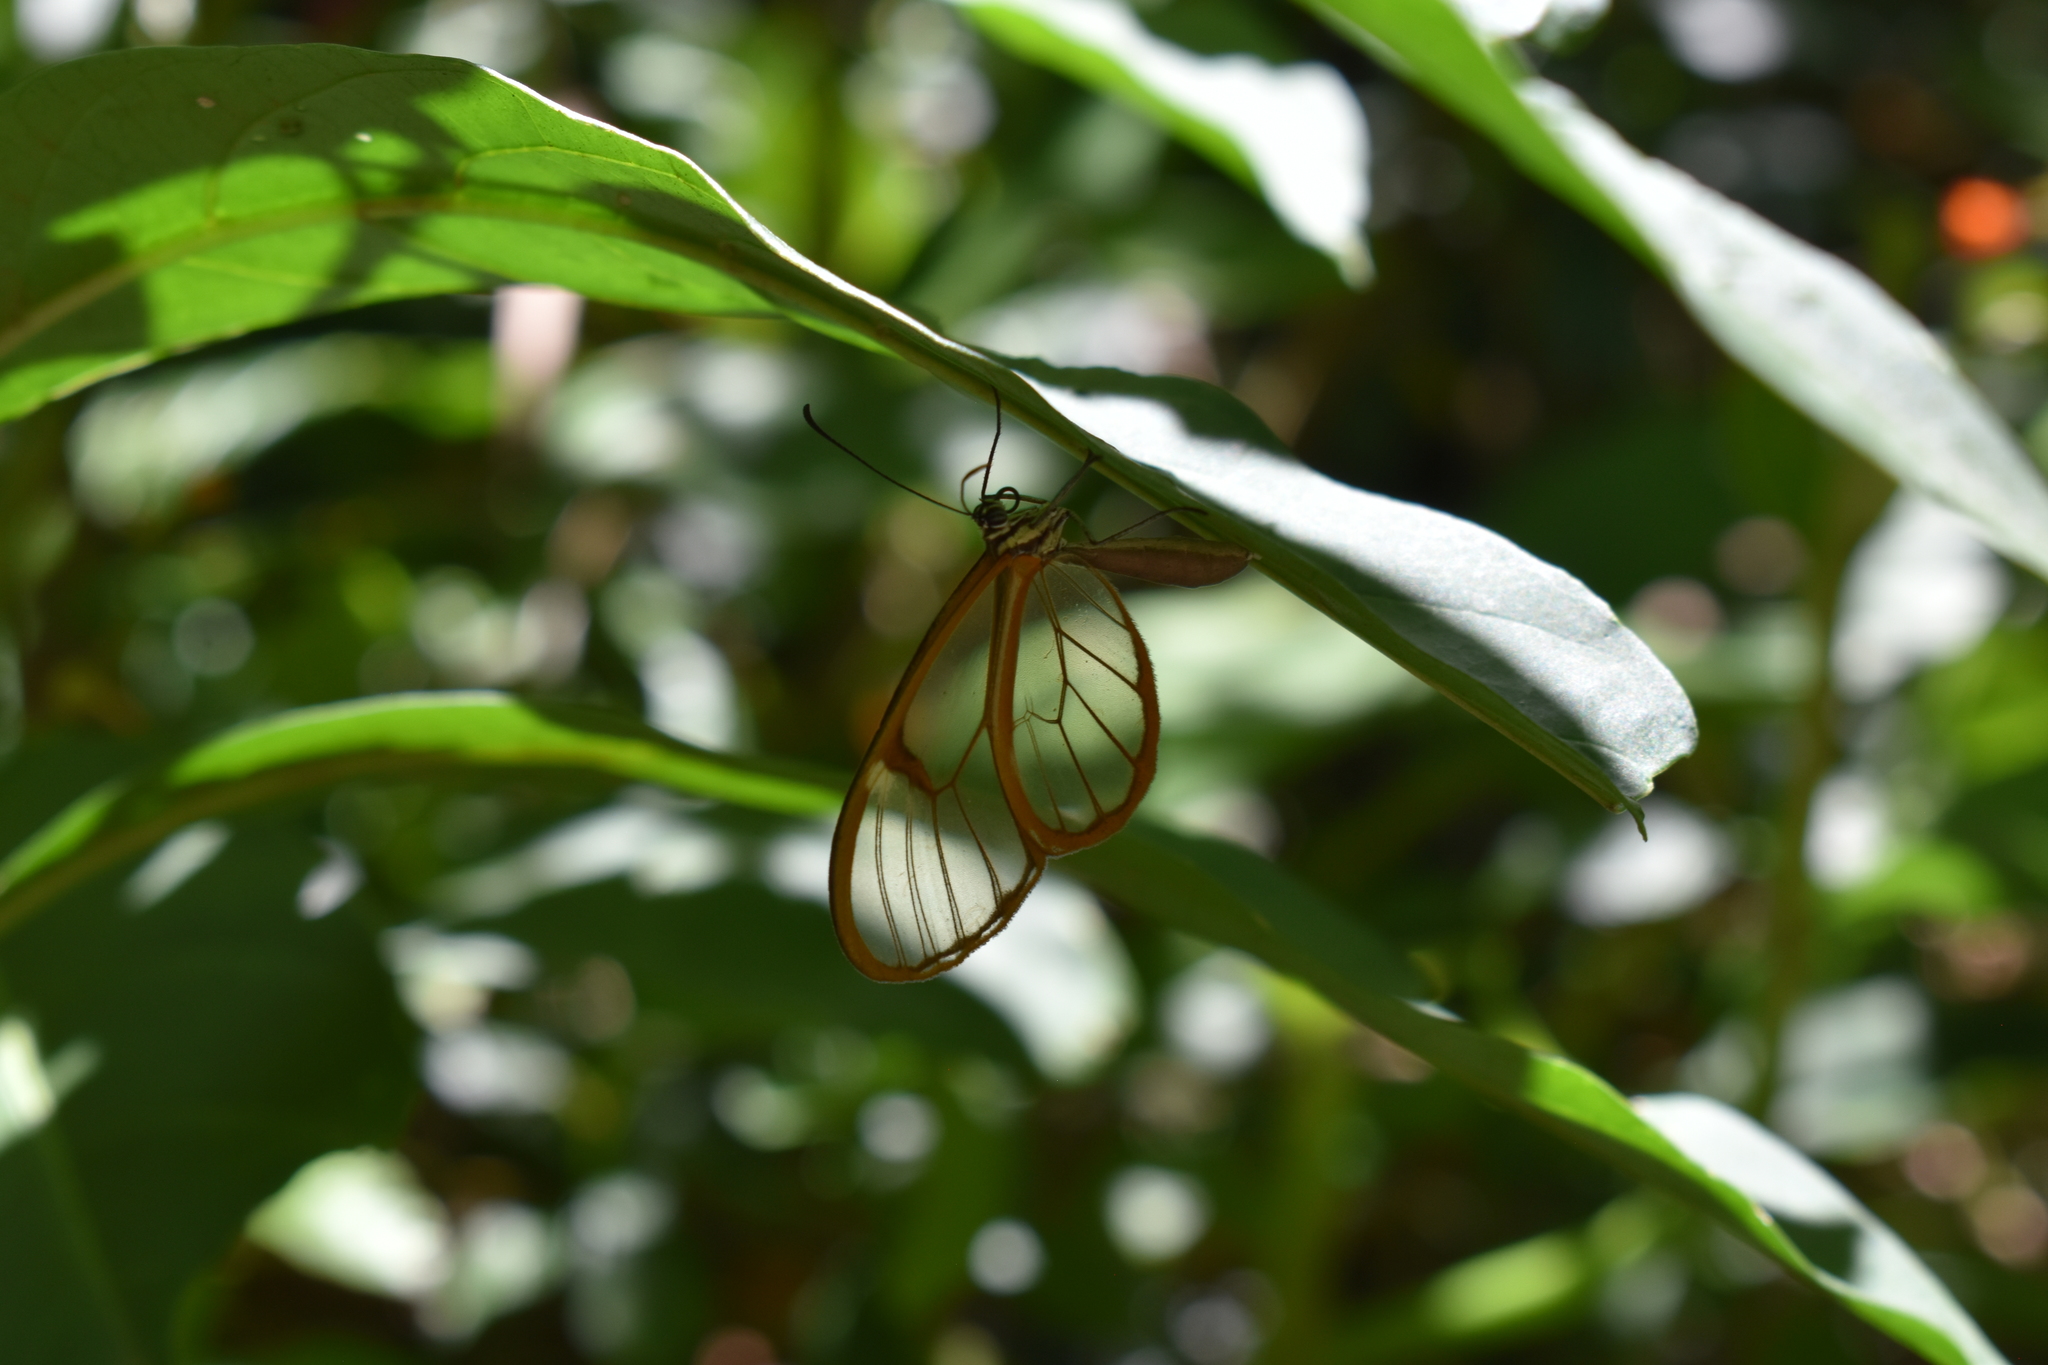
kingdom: Animalia
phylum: Arthropoda
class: Insecta
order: Lepidoptera
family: Nymphalidae
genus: Episcada
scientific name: Episcada salvinia
